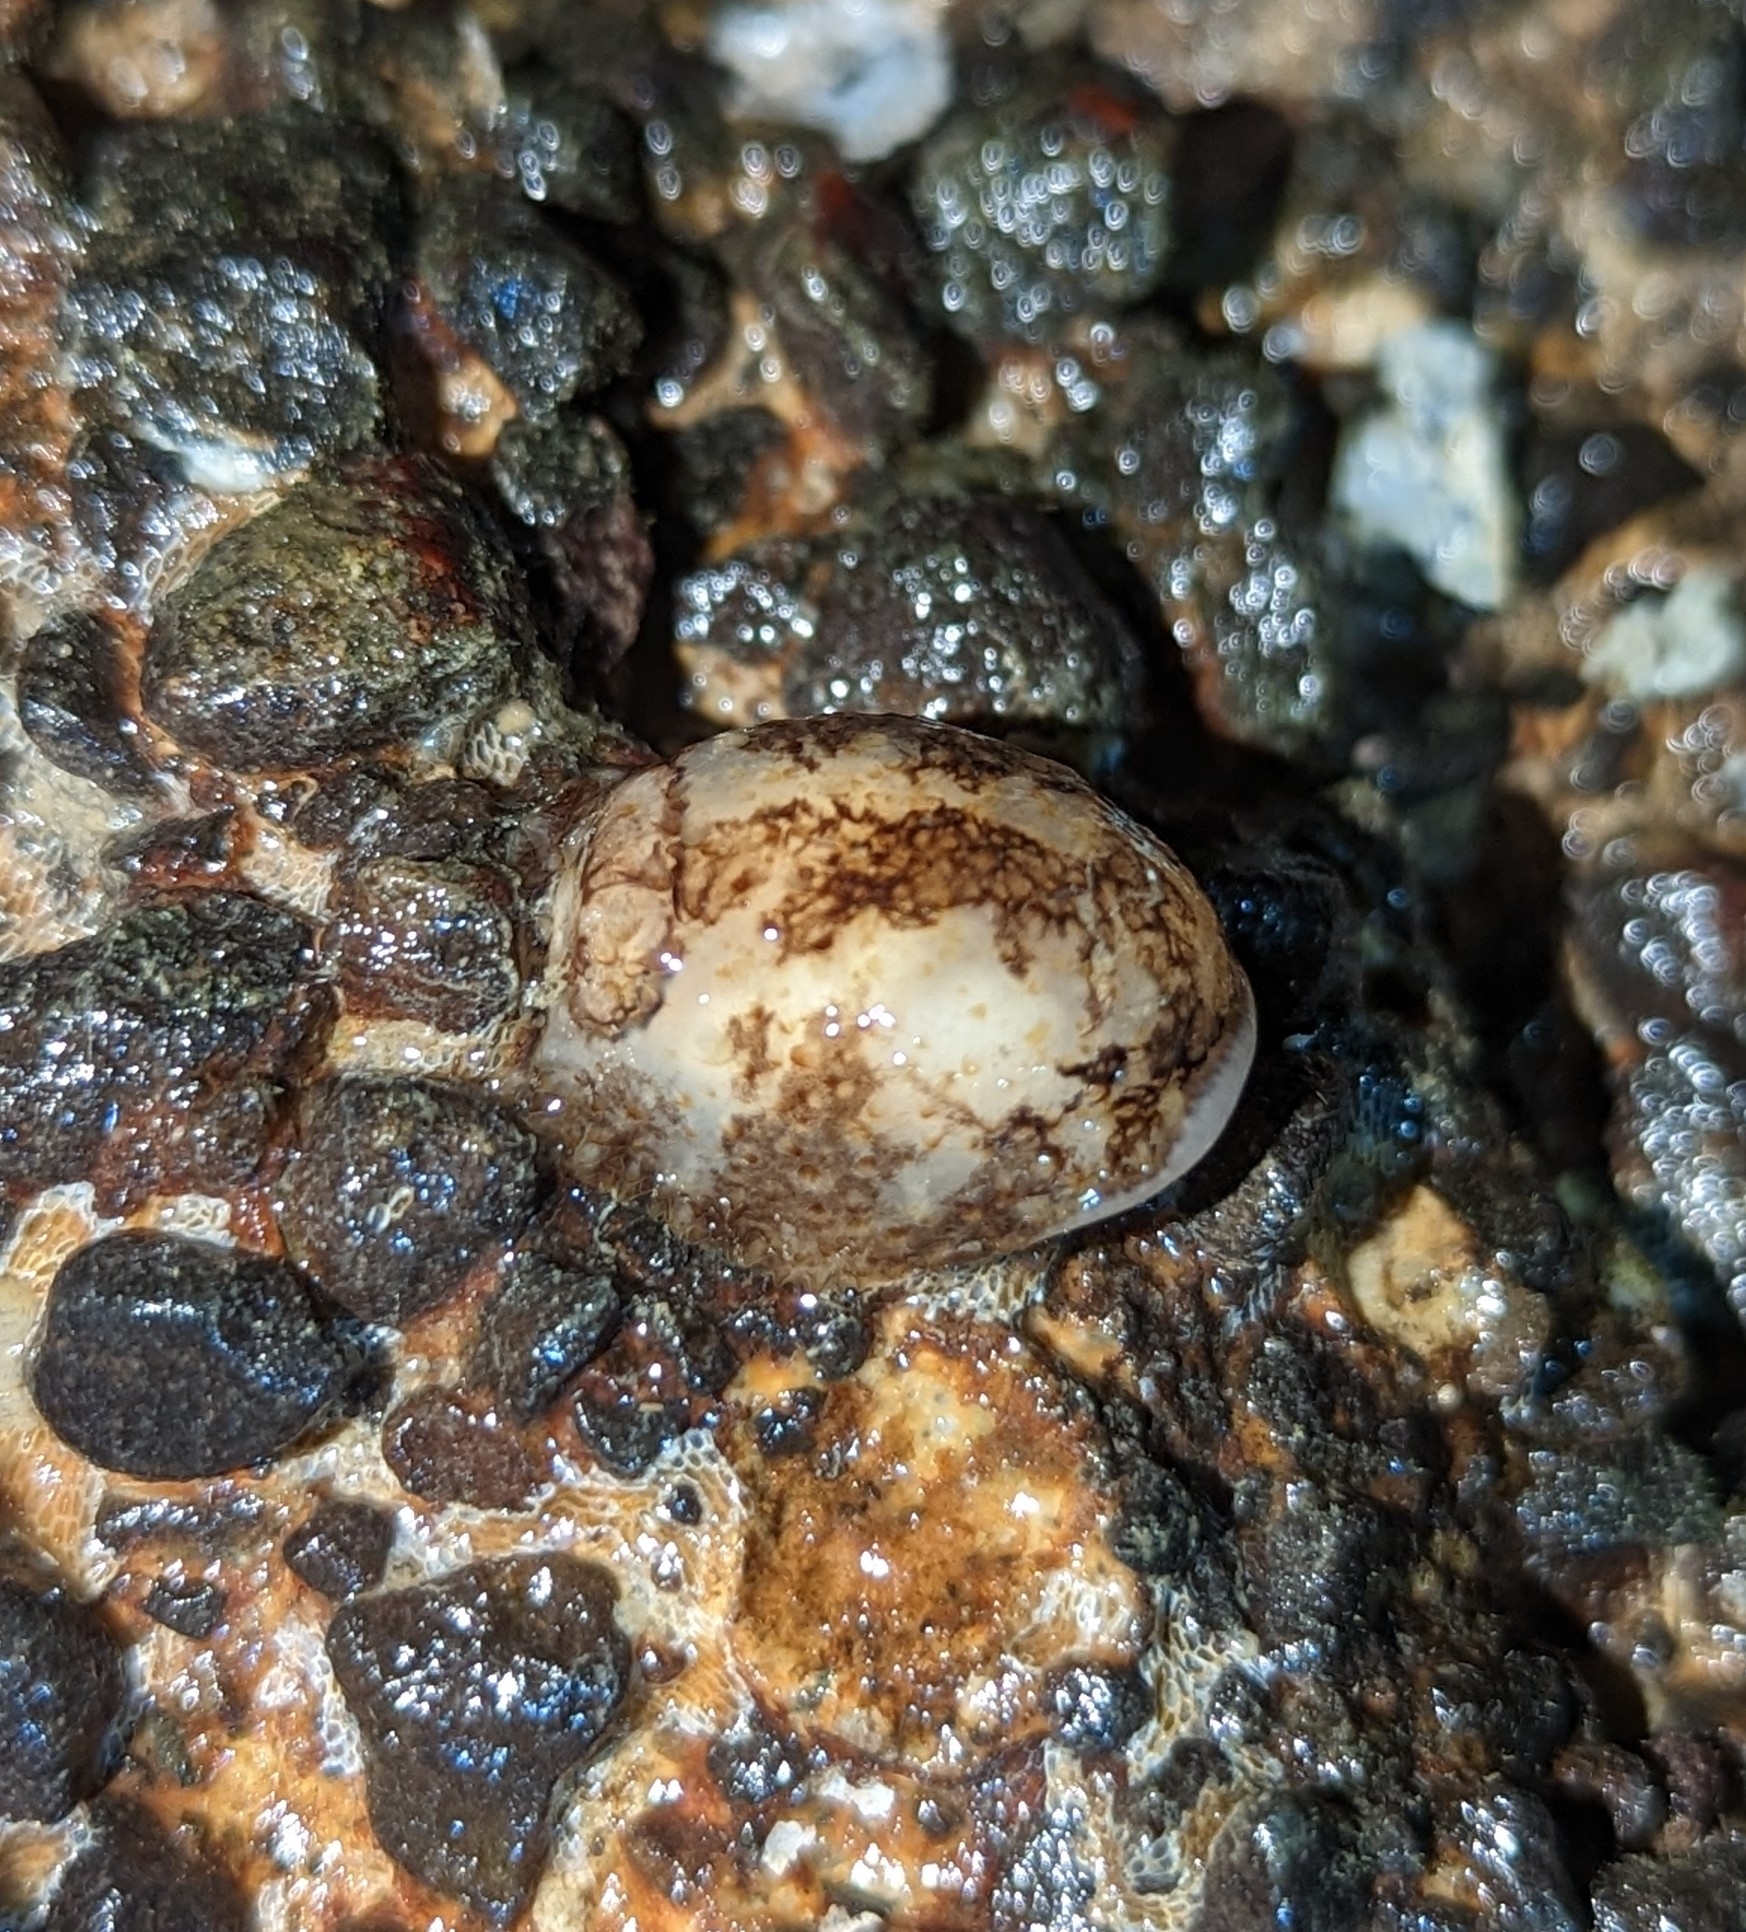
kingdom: Animalia
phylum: Mollusca
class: Gastropoda
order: Nudibranchia
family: Onchidorididae
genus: Onchidoris
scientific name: Onchidoris bilamellata
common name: Barnacle-eating onchidoris
